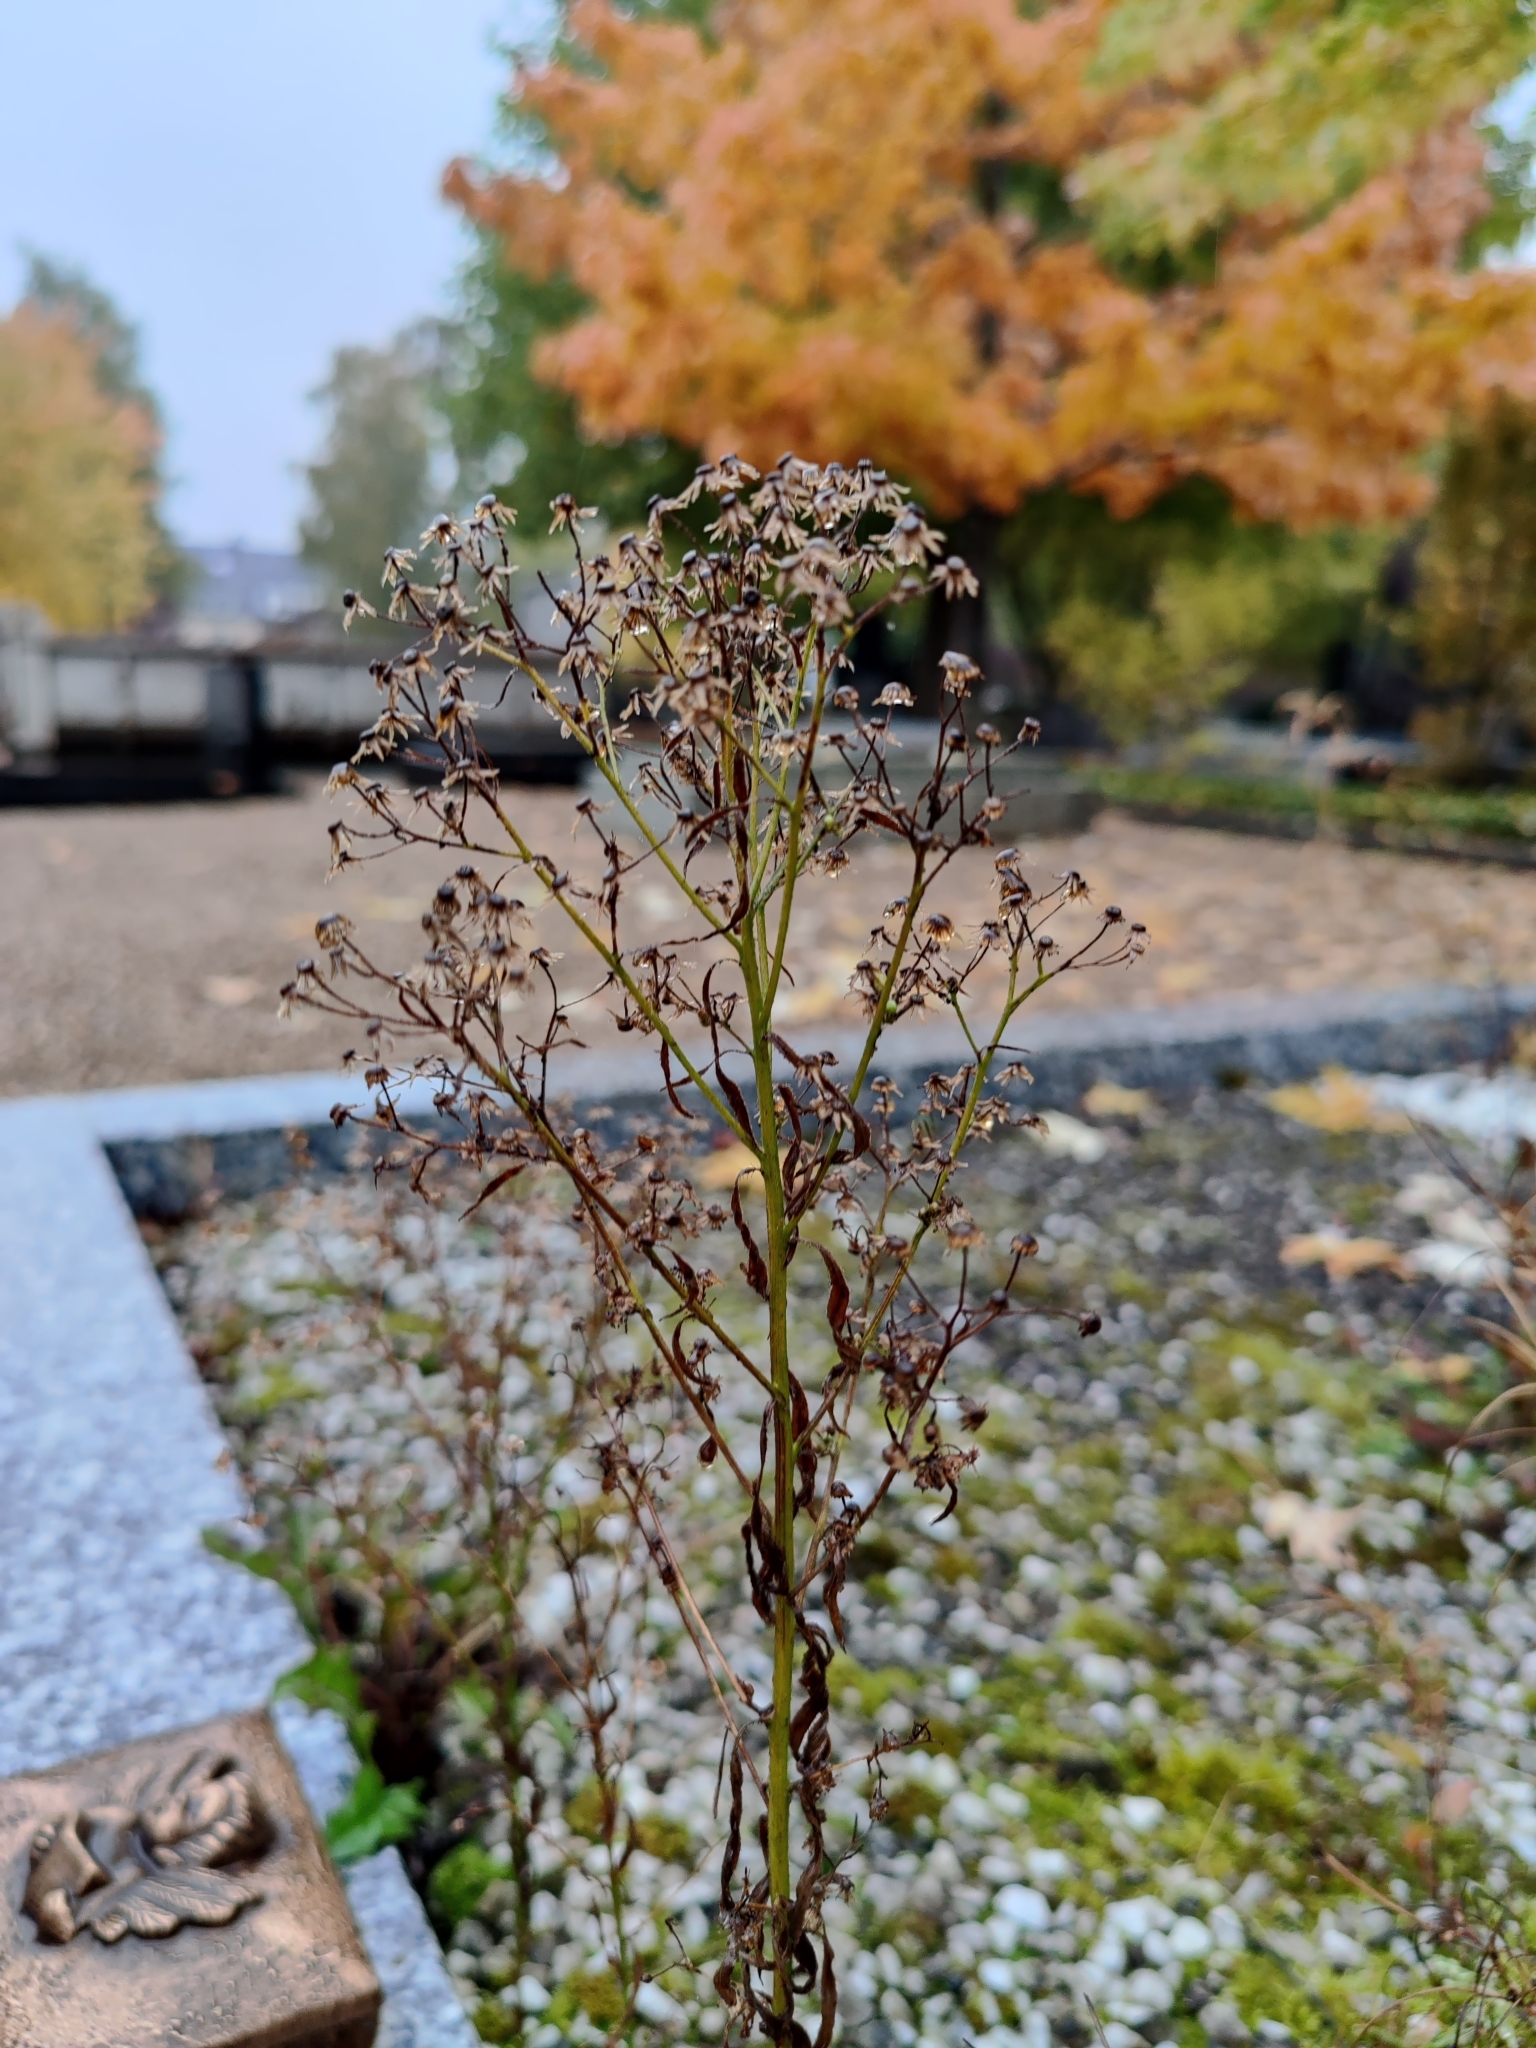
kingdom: Plantae
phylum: Tracheophyta
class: Magnoliopsida
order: Asterales
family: Asteraceae
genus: Erigeron
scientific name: Erigeron canadensis
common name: Canadian fleabane
